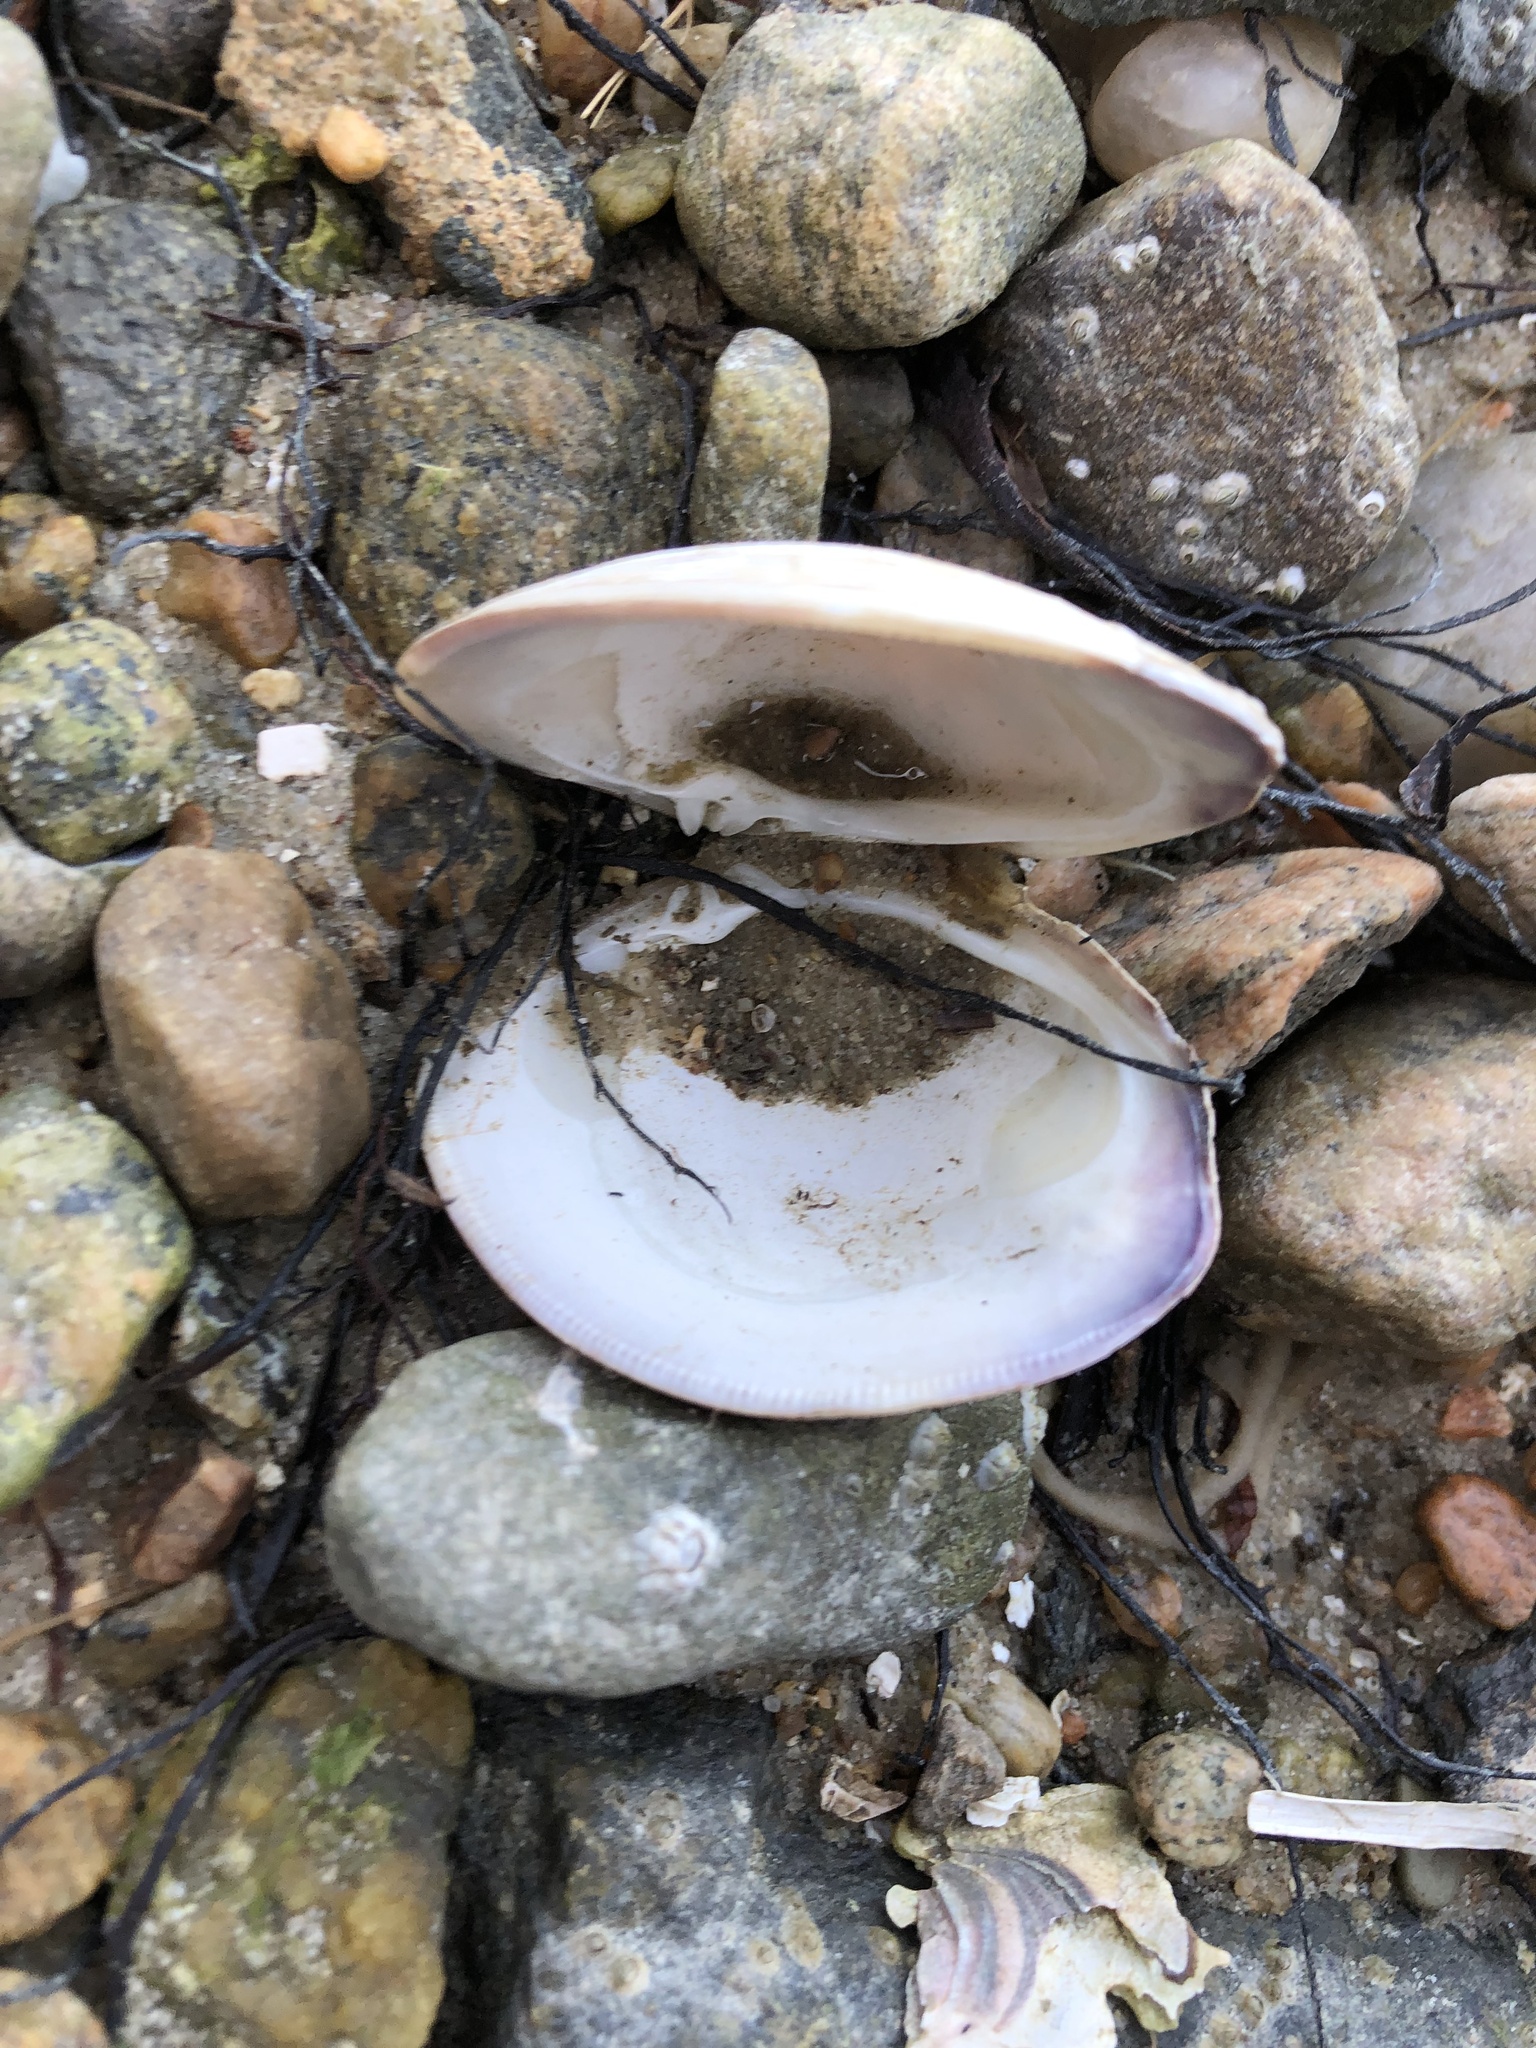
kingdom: Animalia
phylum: Mollusca
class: Bivalvia
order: Venerida
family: Veneridae
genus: Mercenaria
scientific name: Mercenaria mercenaria
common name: American hard-shelled clam
